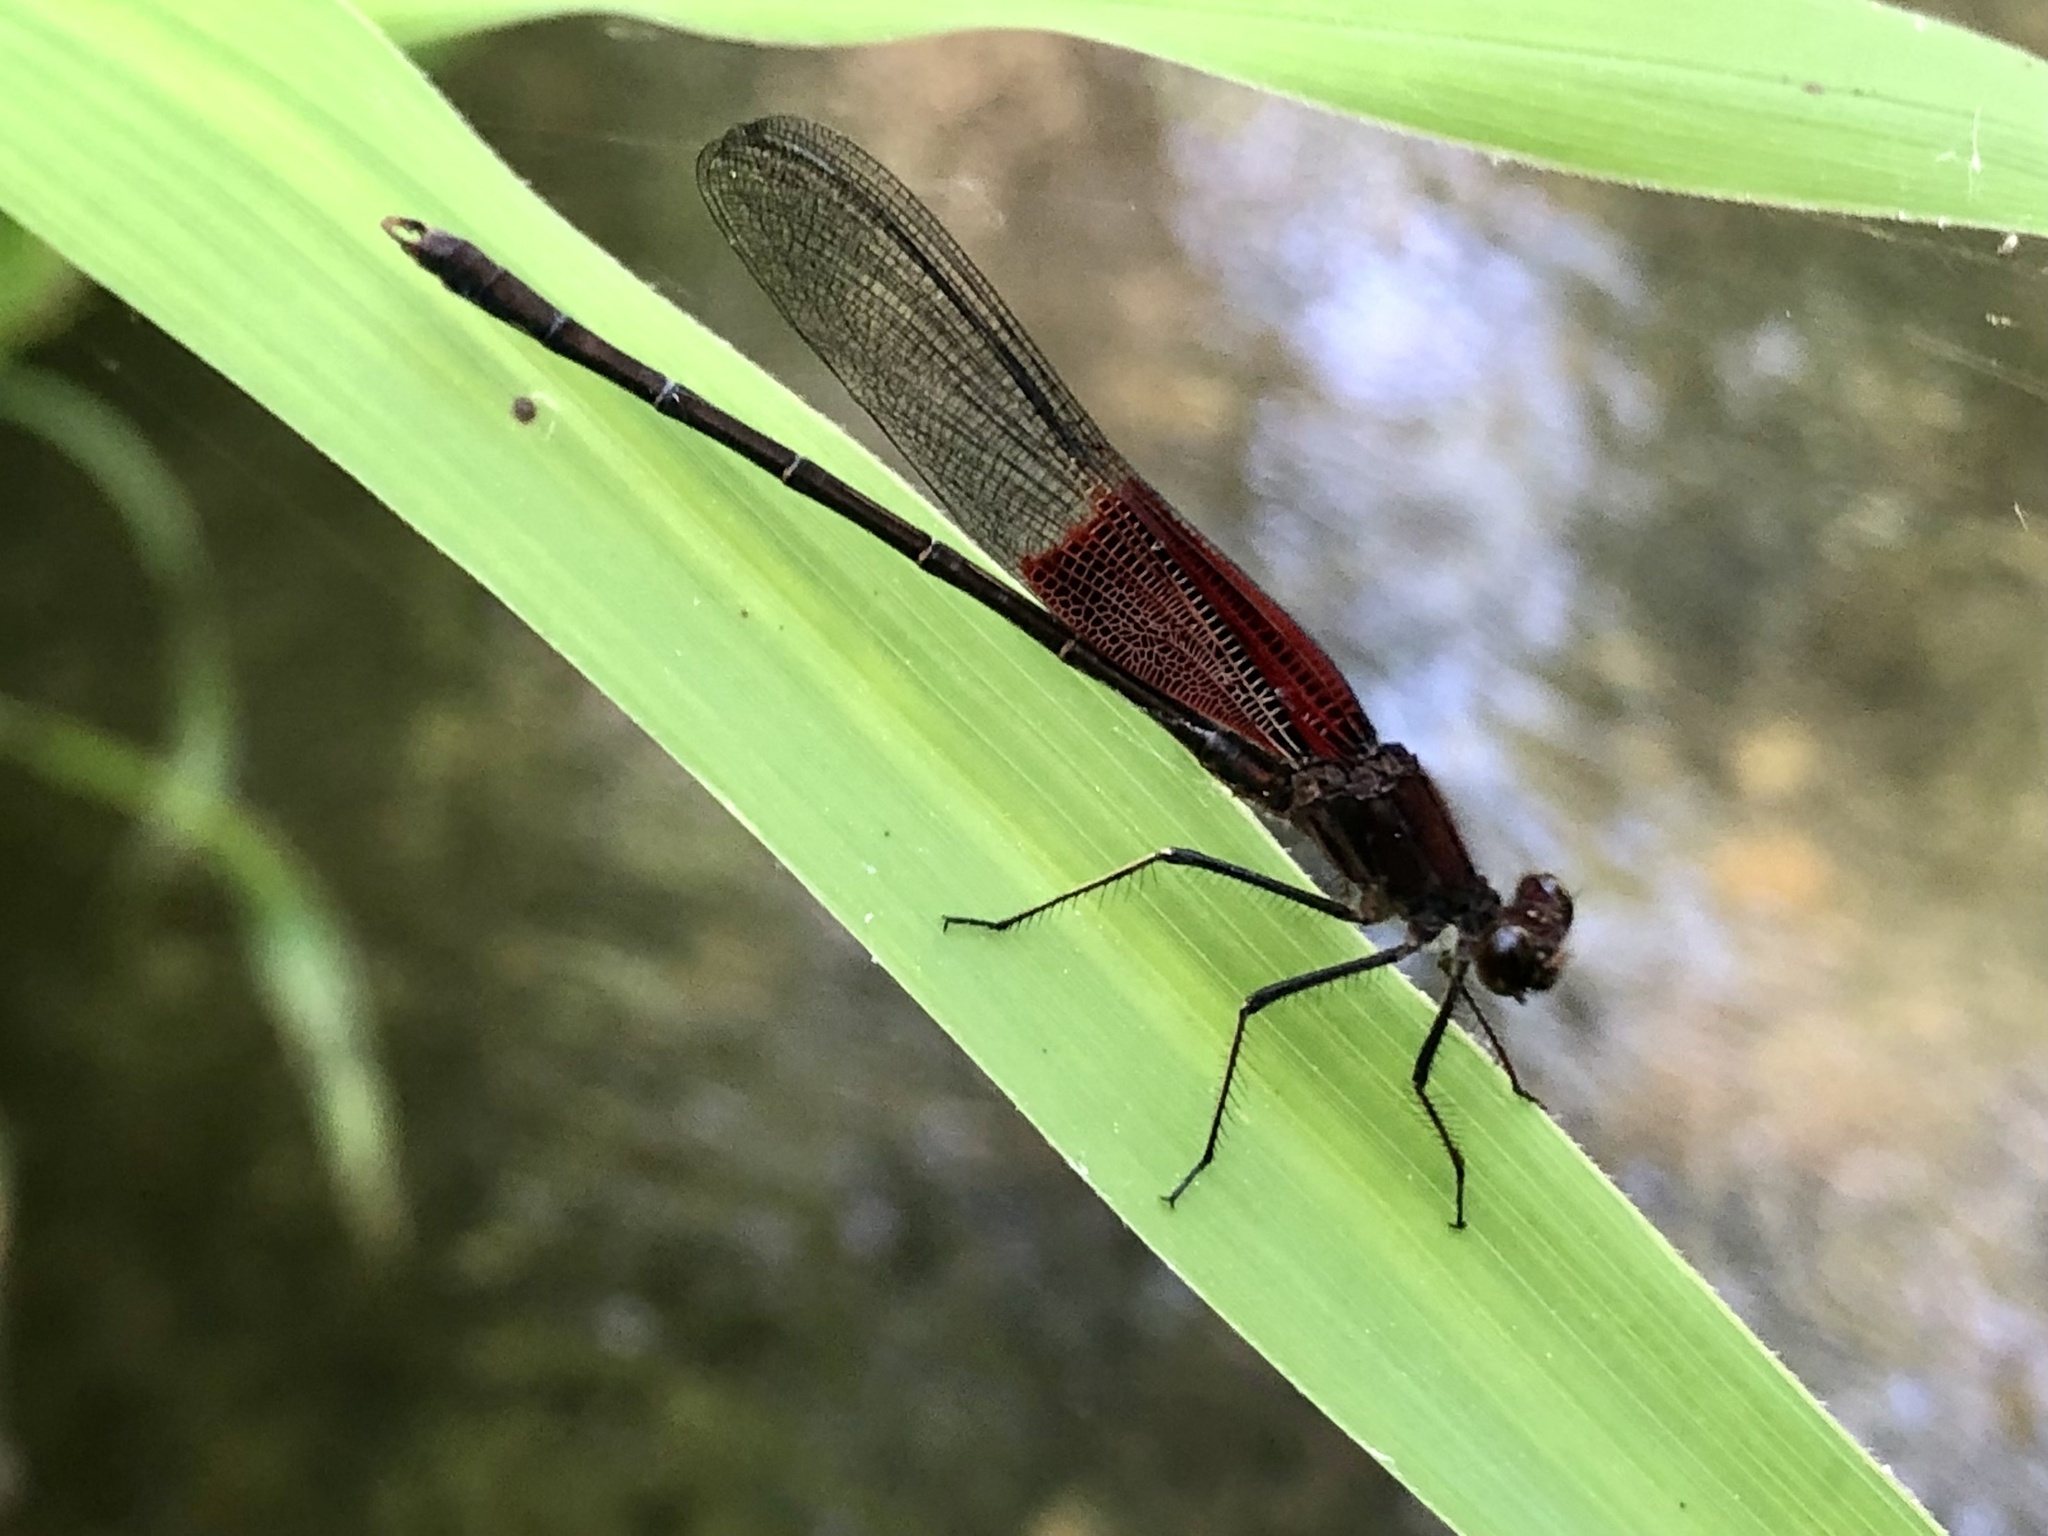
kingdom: Animalia
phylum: Arthropoda
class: Insecta
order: Odonata
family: Calopterygidae
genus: Hetaerina
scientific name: Hetaerina americana
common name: American rubyspot
